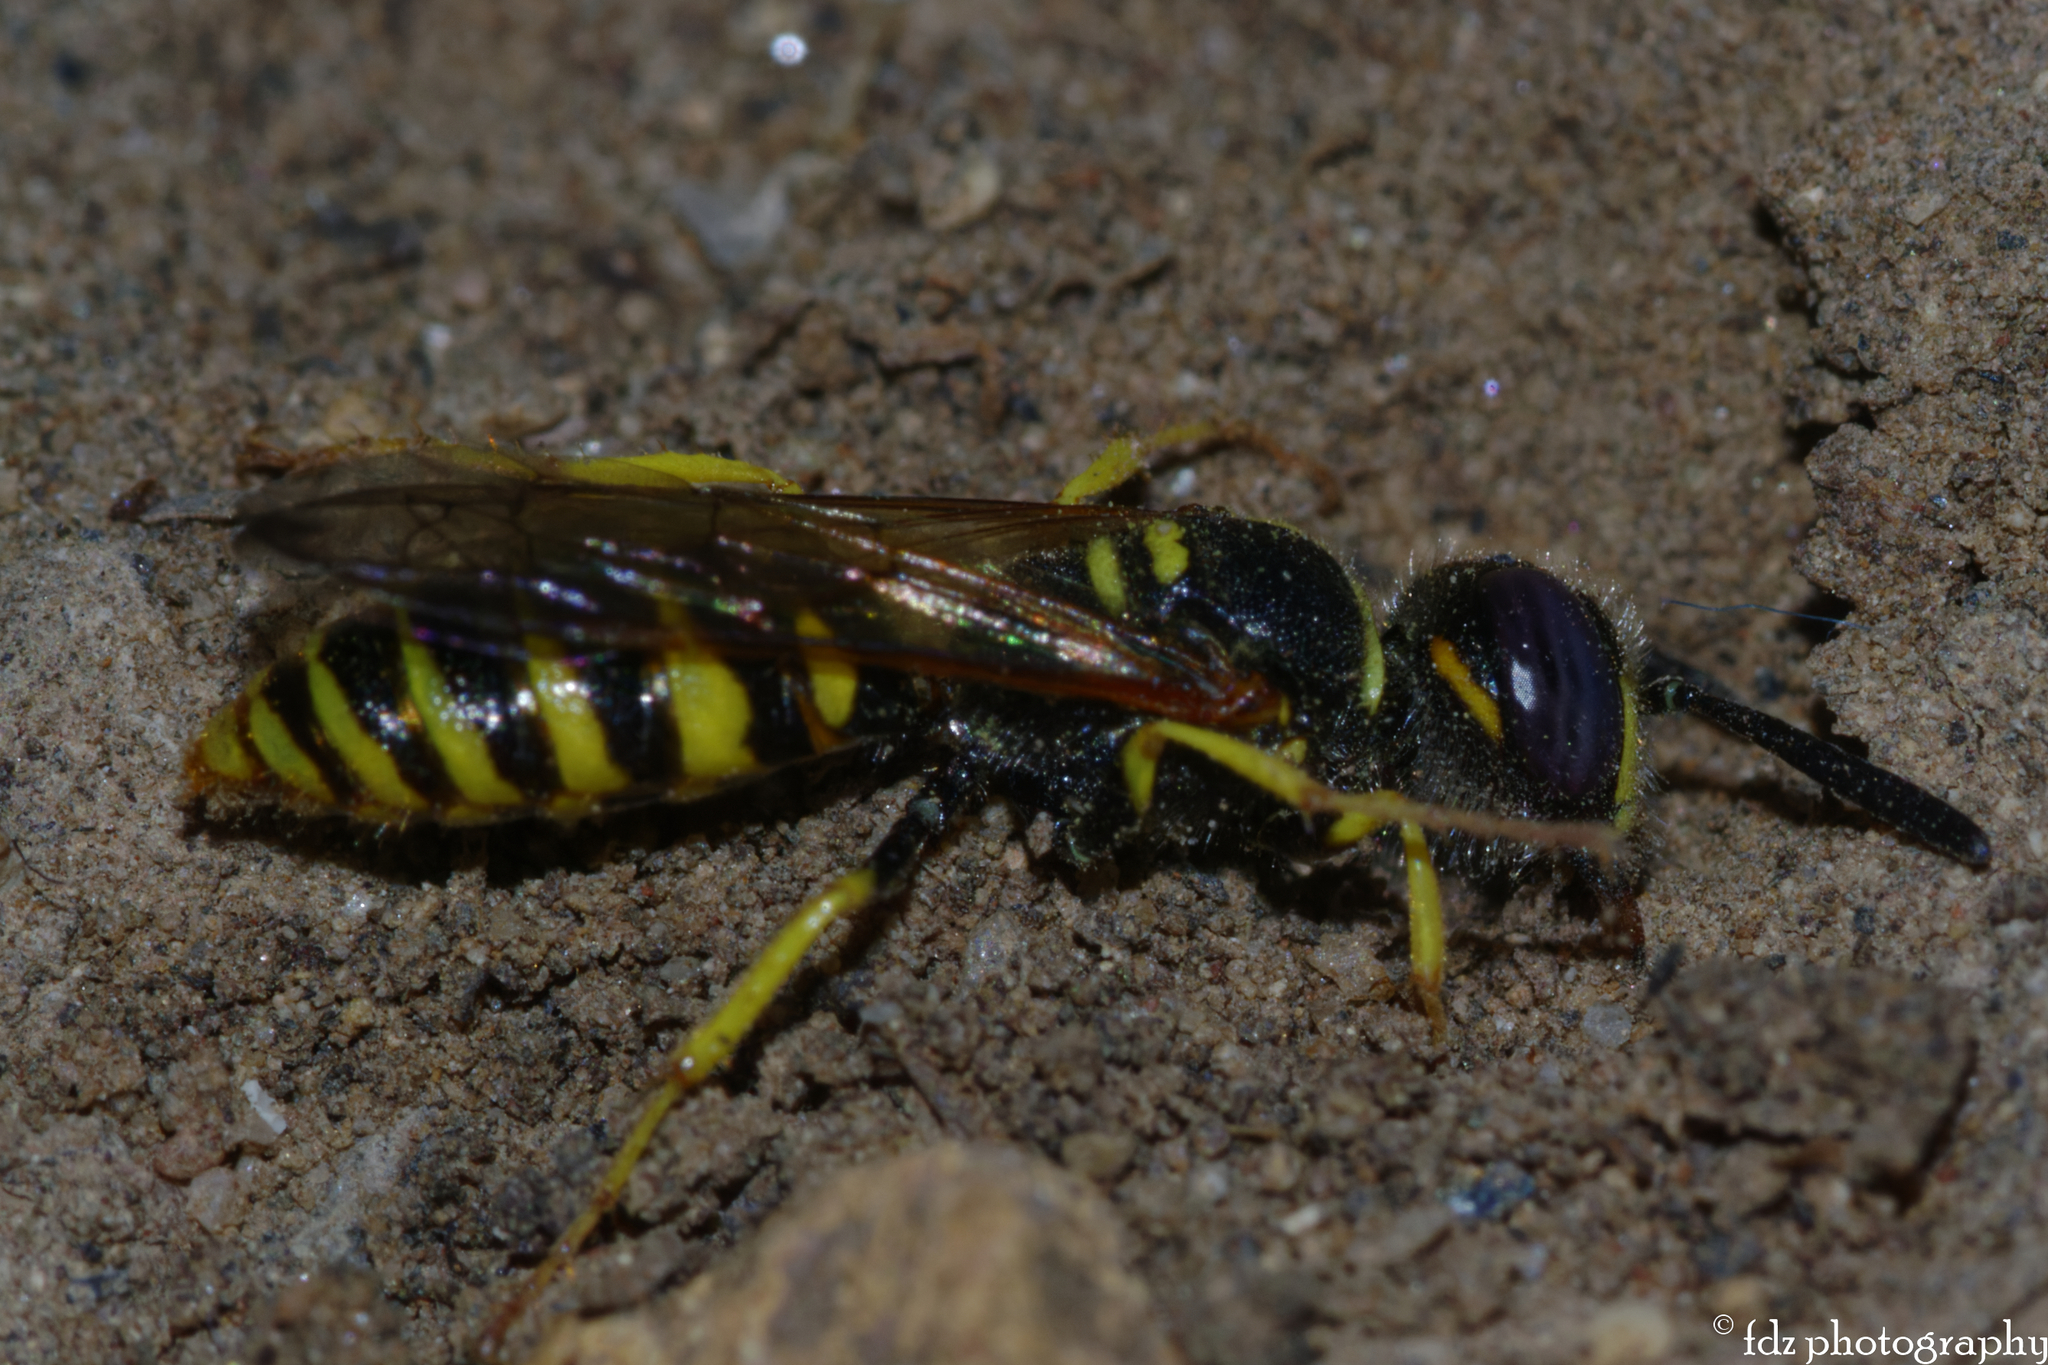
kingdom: Animalia
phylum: Arthropoda
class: Insecta
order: Hymenoptera
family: Crabronidae
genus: Philanthus
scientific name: Philanthus triangulum
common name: Bee wolf
